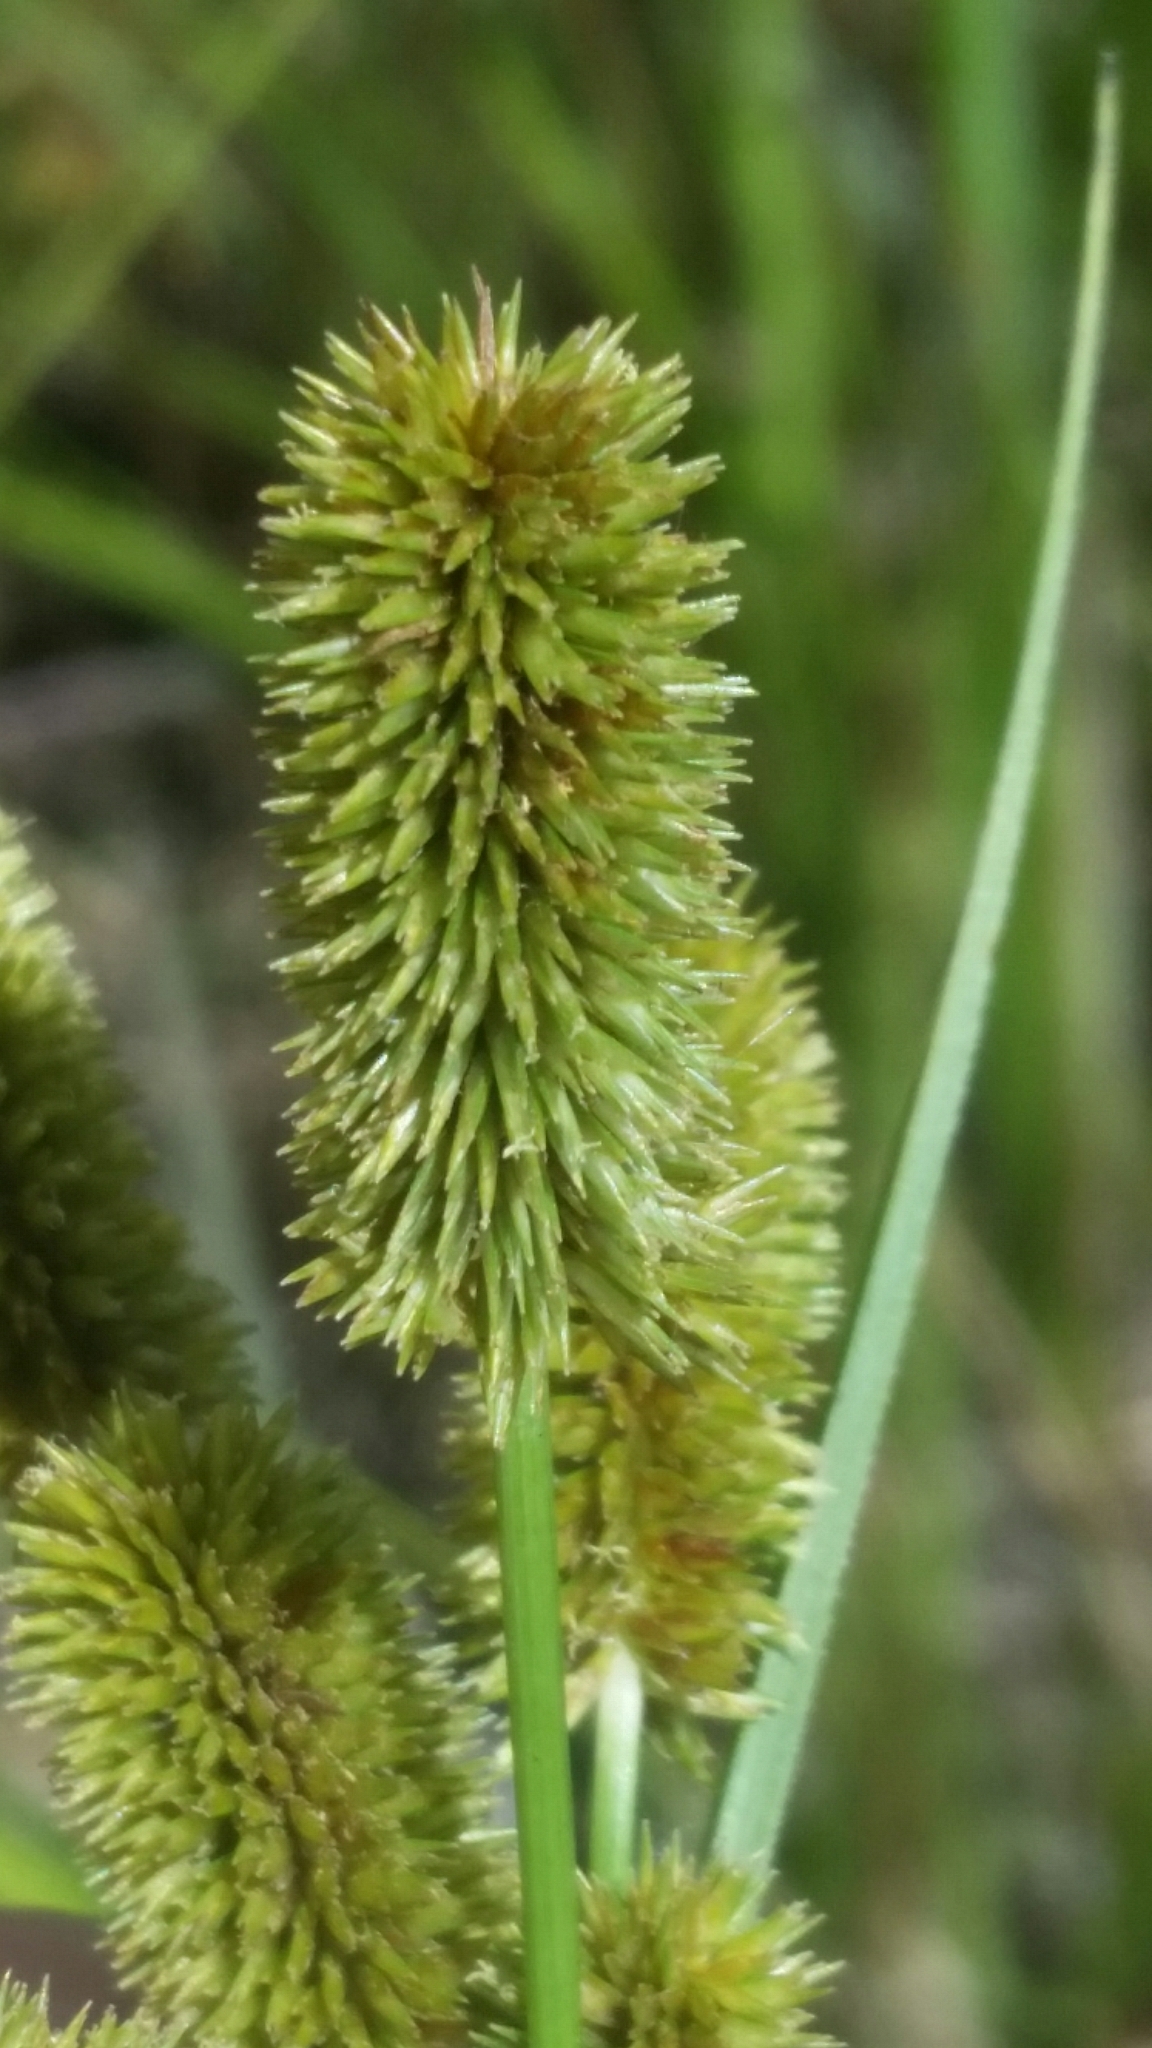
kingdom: Plantae
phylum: Tracheophyta
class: Liliopsida
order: Poales
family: Cyperaceae
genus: Cyperus
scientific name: Cyperus ovatus
